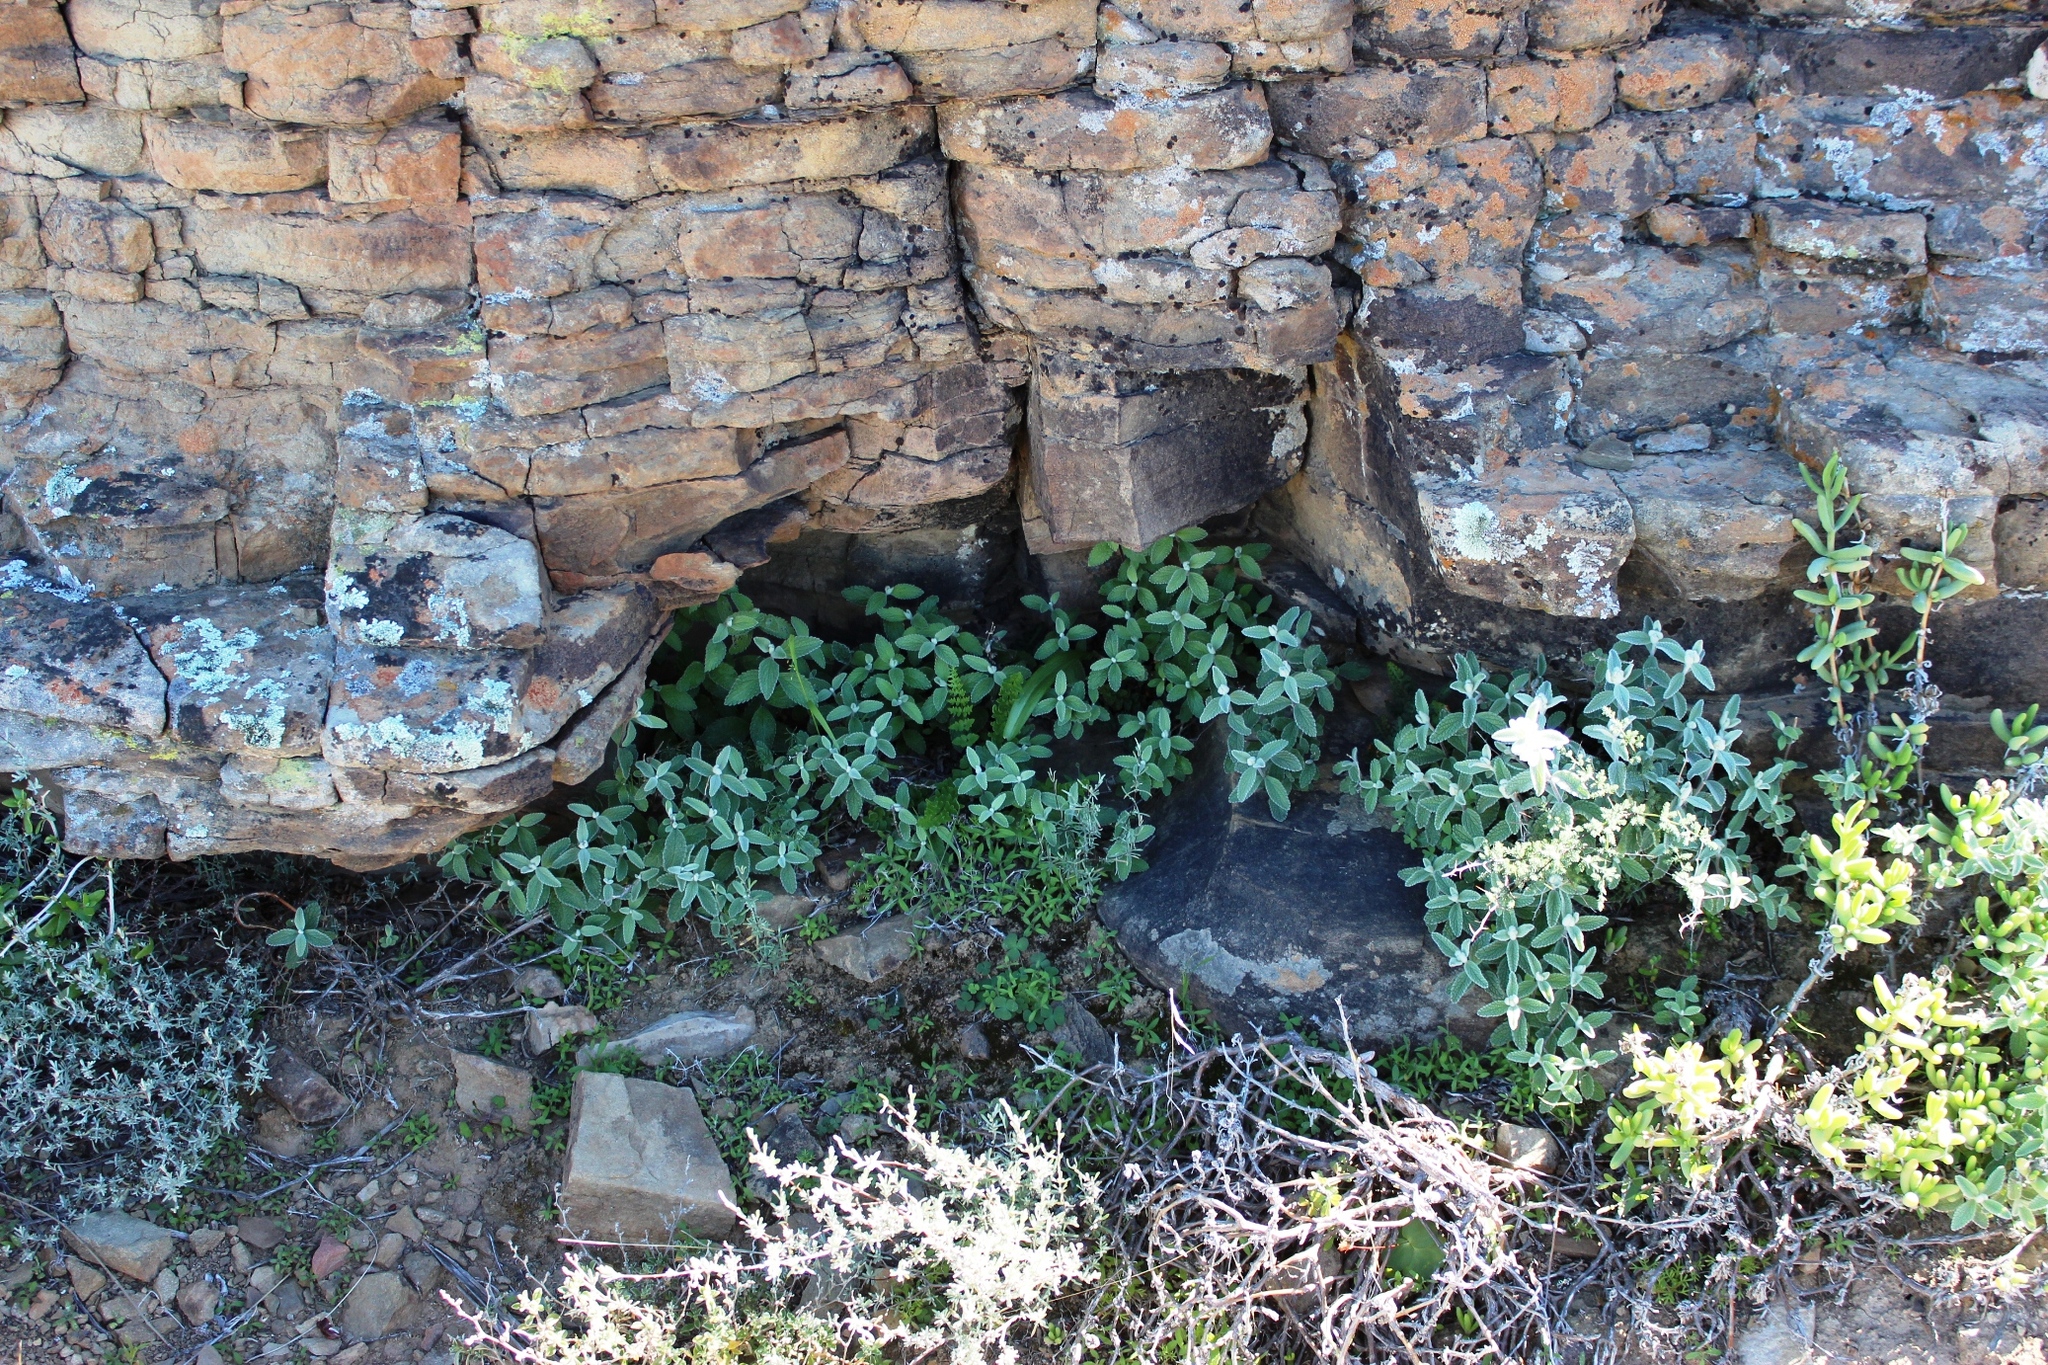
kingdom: Plantae
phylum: Tracheophyta
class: Magnoliopsida
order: Lamiales
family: Lamiaceae
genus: Stachys
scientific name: Stachys lamarckii
